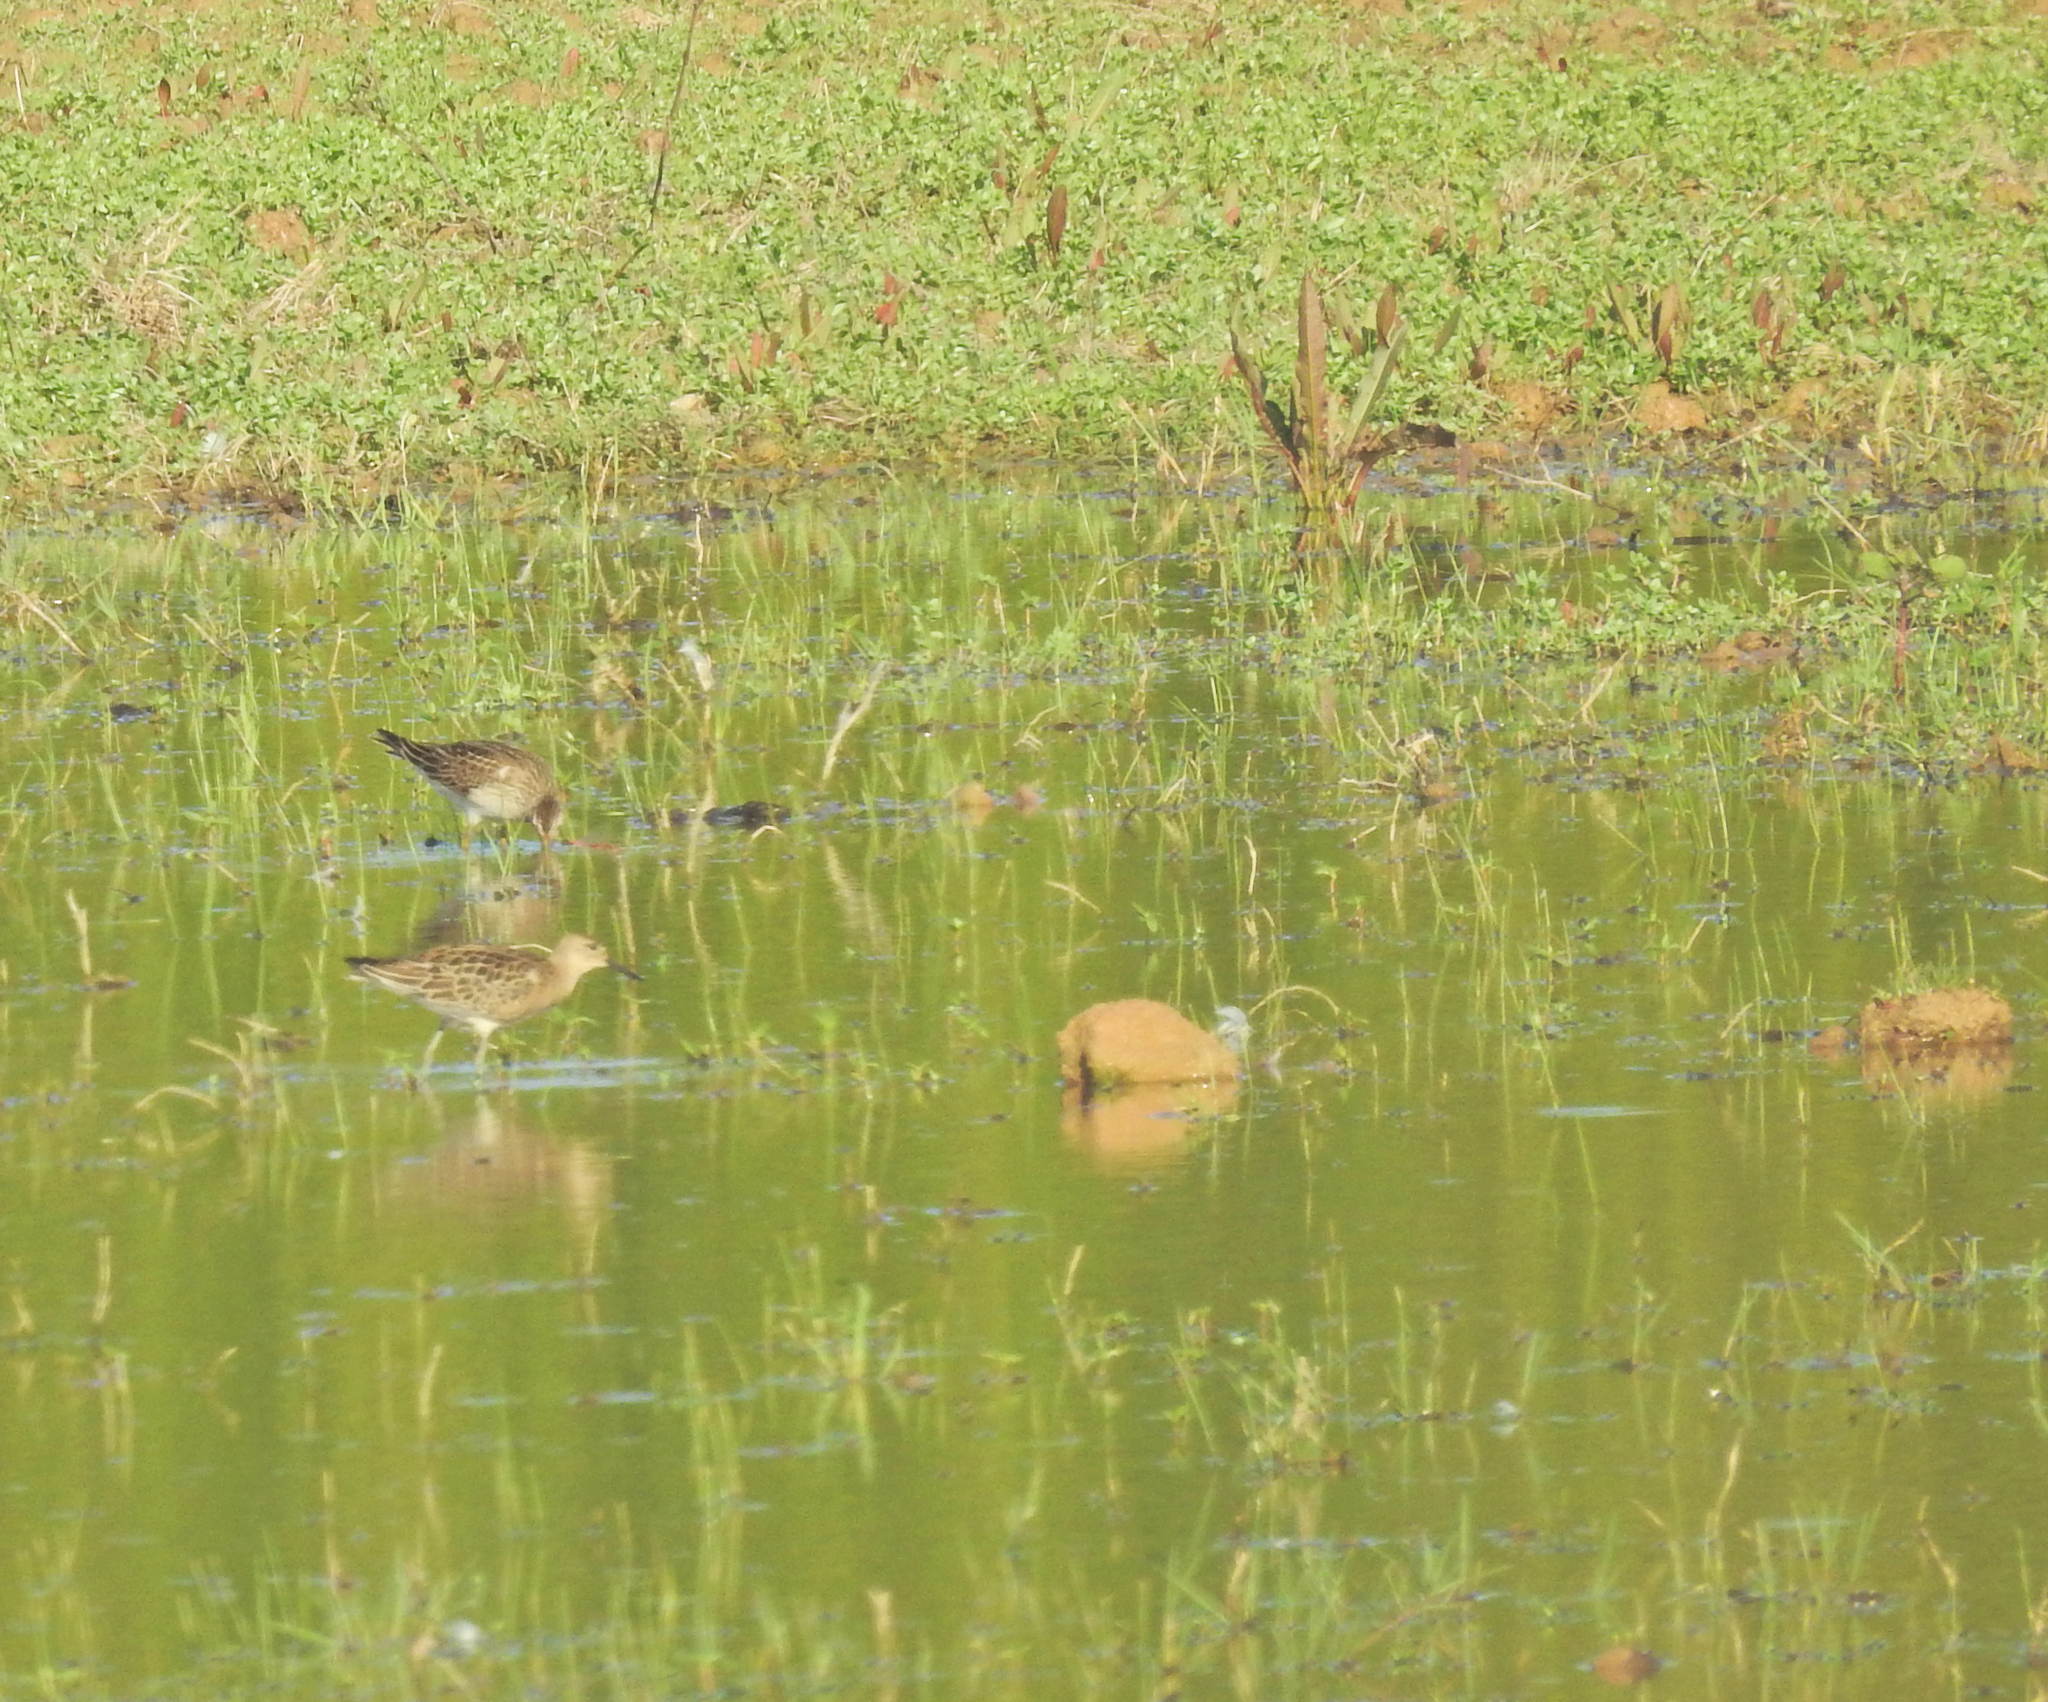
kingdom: Animalia
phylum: Chordata
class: Aves
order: Charadriiformes
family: Scolopacidae
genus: Calidris
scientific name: Calidris pugnax
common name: Ruff
